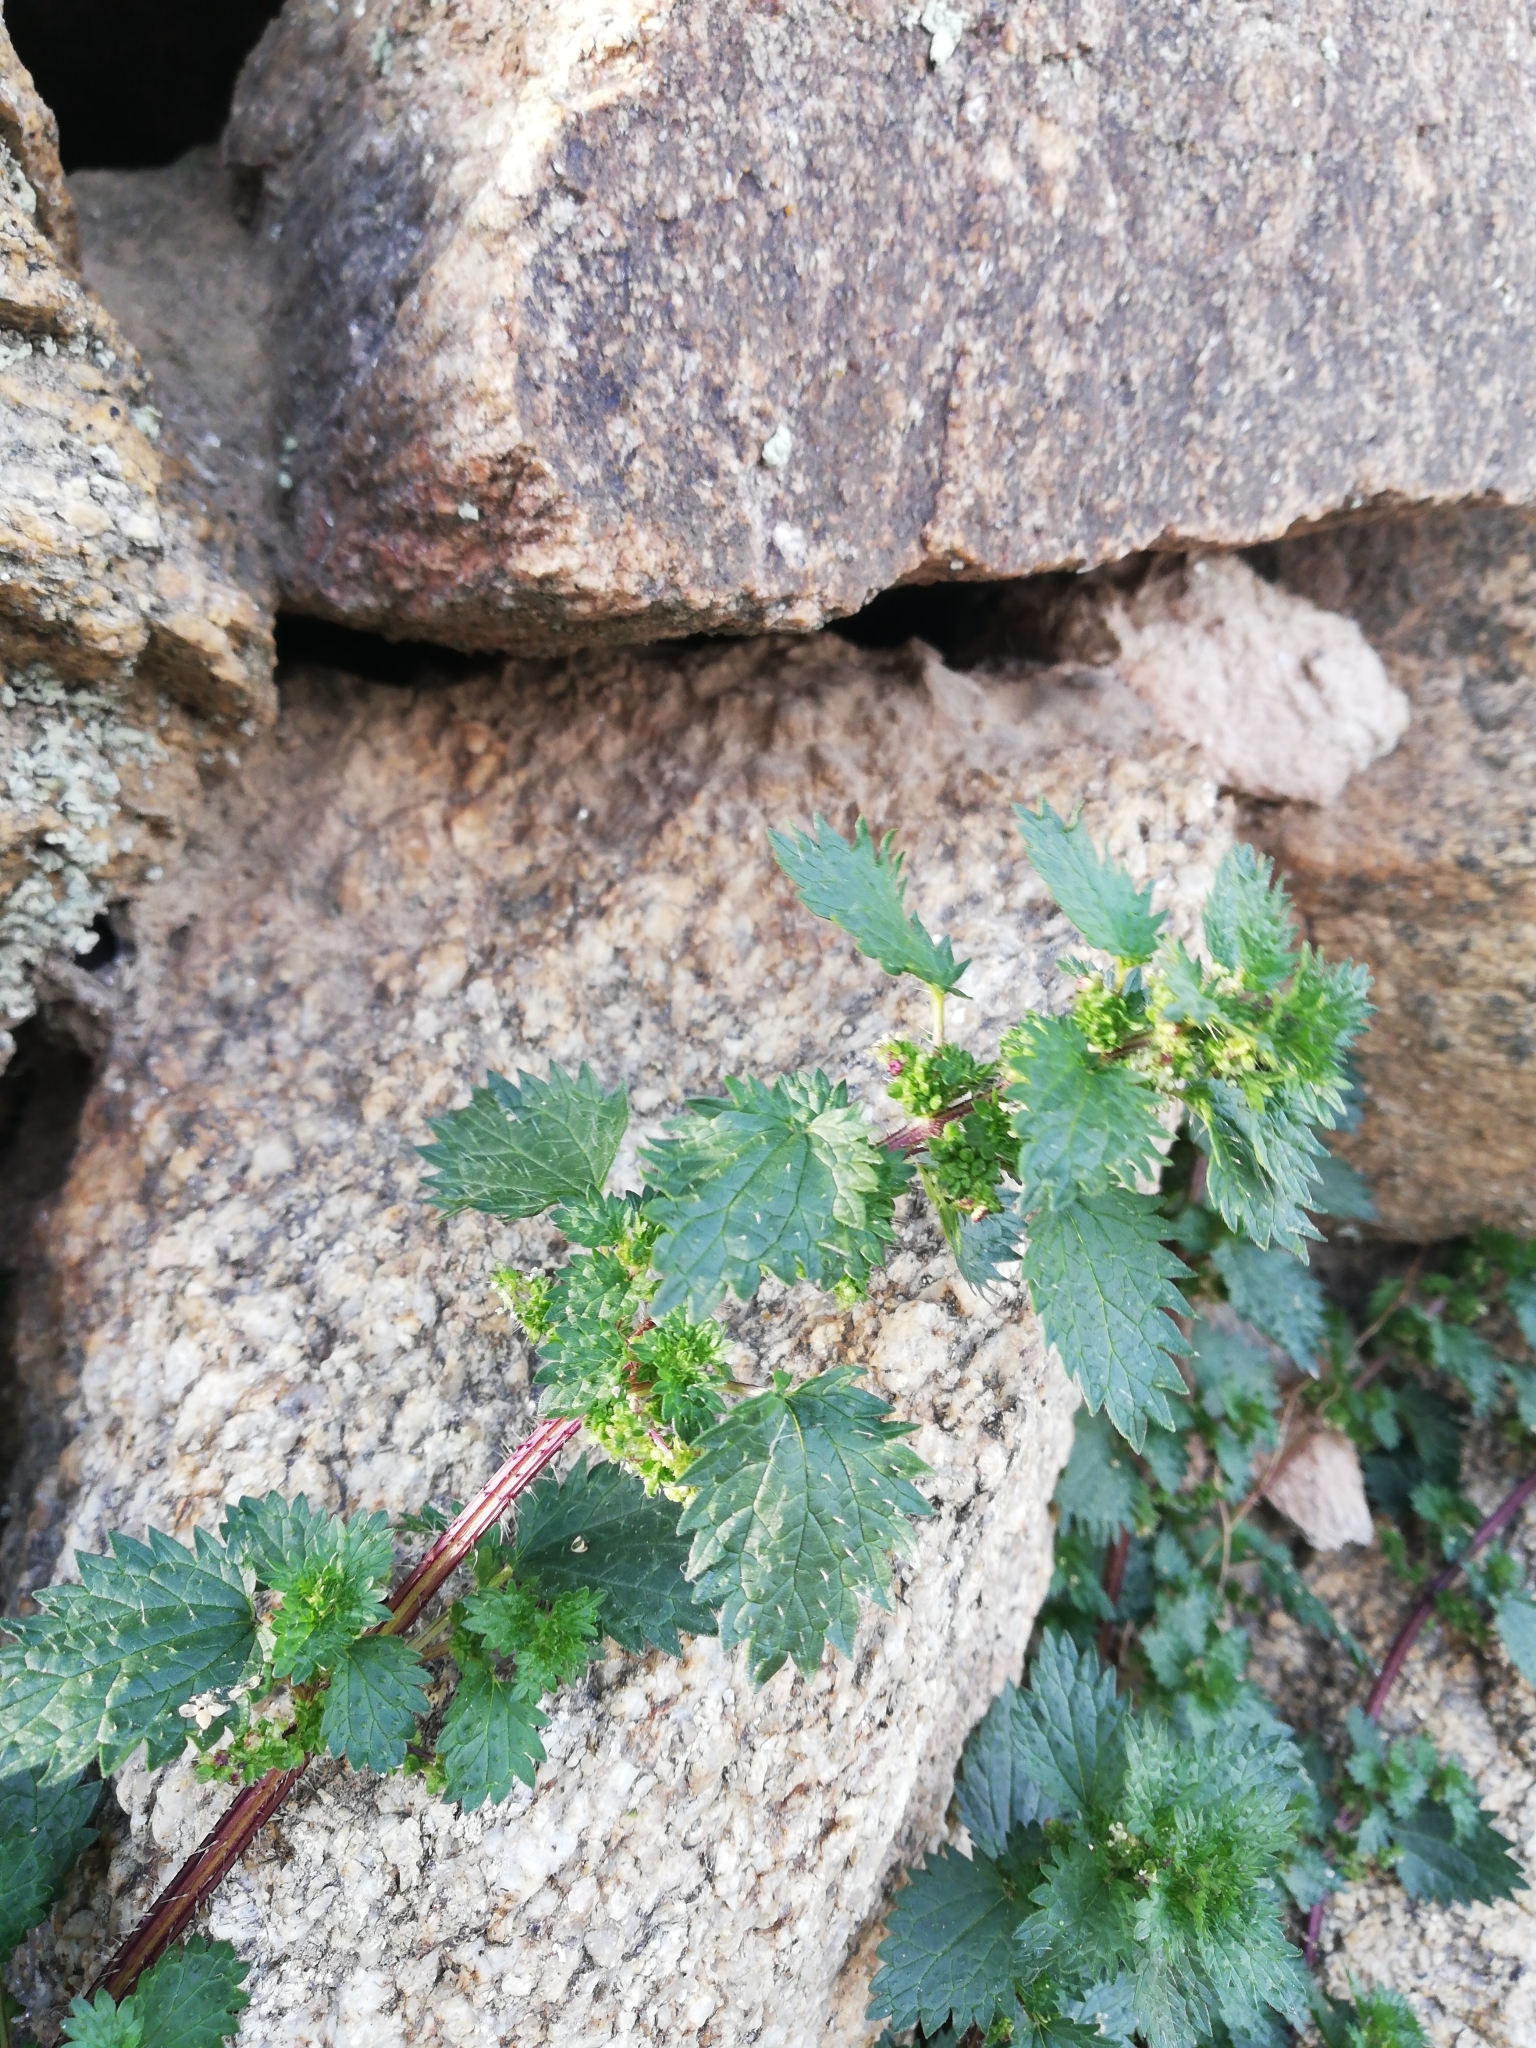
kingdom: Plantae
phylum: Tracheophyta
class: Magnoliopsida
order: Rosales
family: Urticaceae
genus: Urtica
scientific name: Urtica urens
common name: Dwarf nettle
